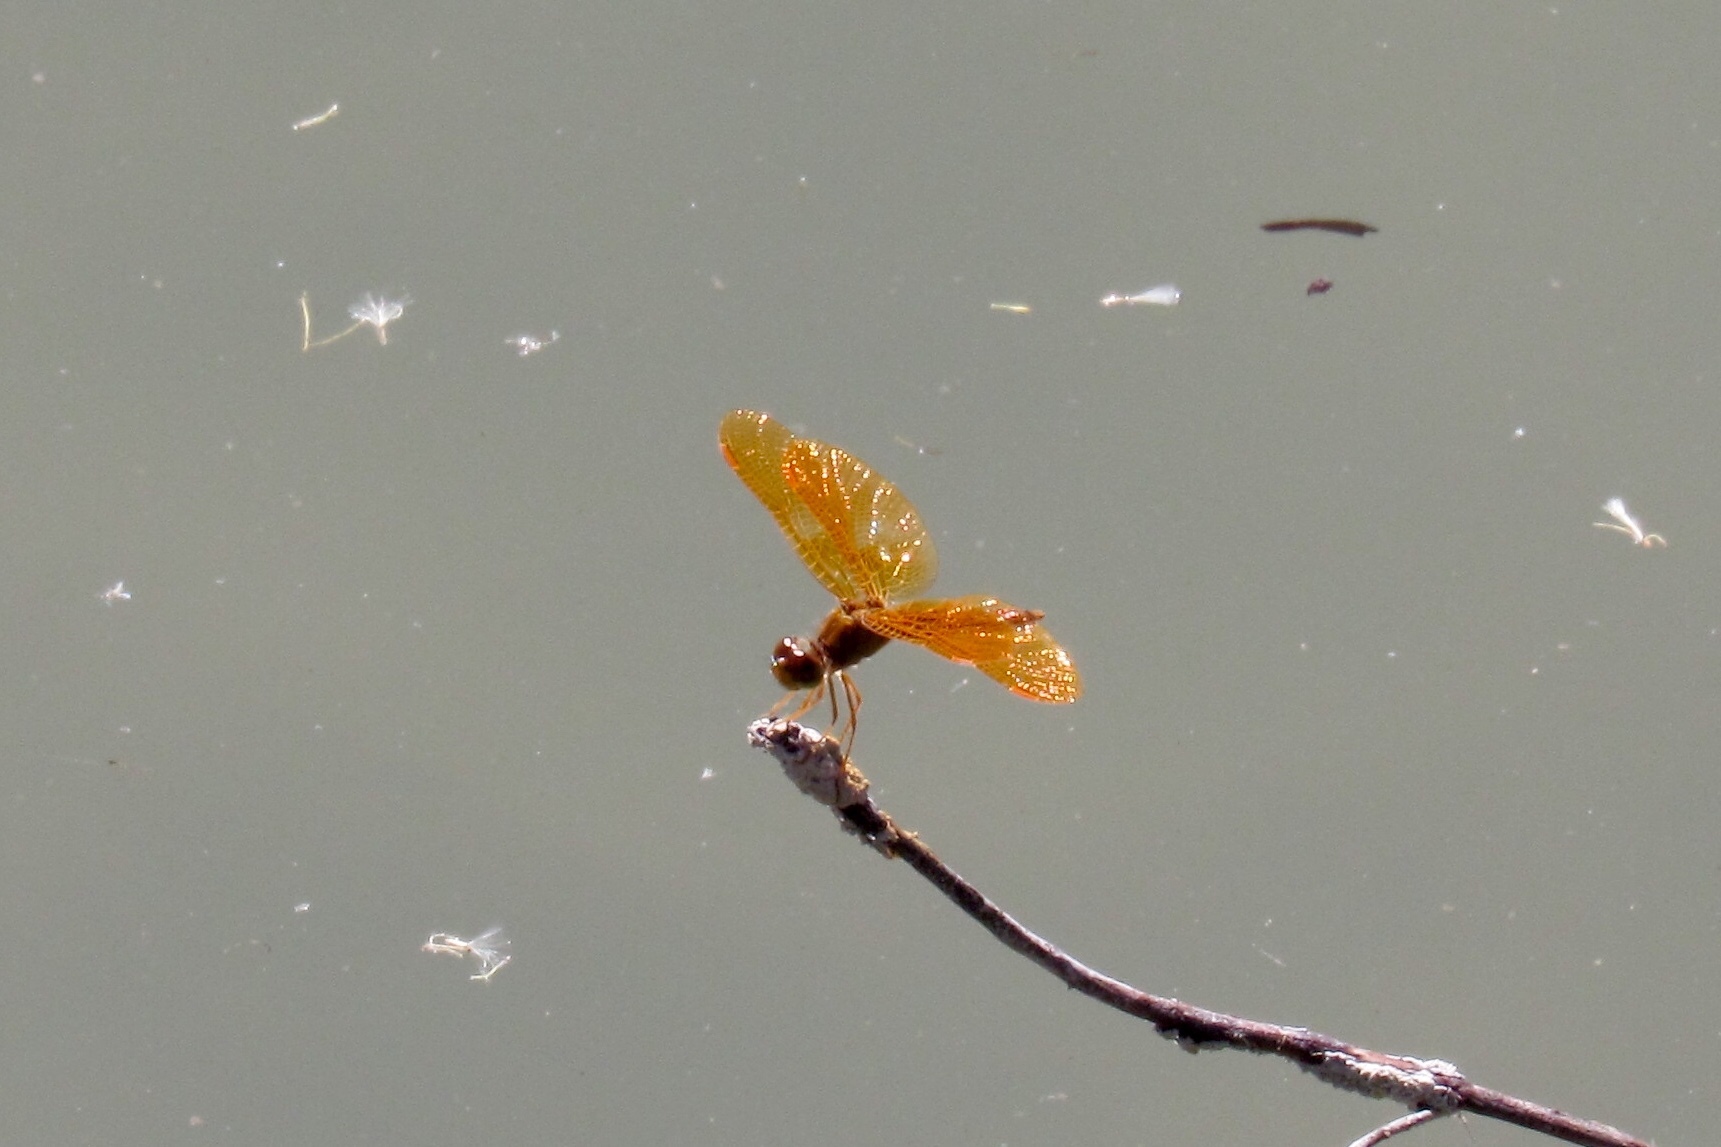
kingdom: Animalia
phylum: Arthropoda
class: Insecta
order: Odonata
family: Libellulidae
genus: Perithemis
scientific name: Perithemis intensa
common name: Mexican amberwing
